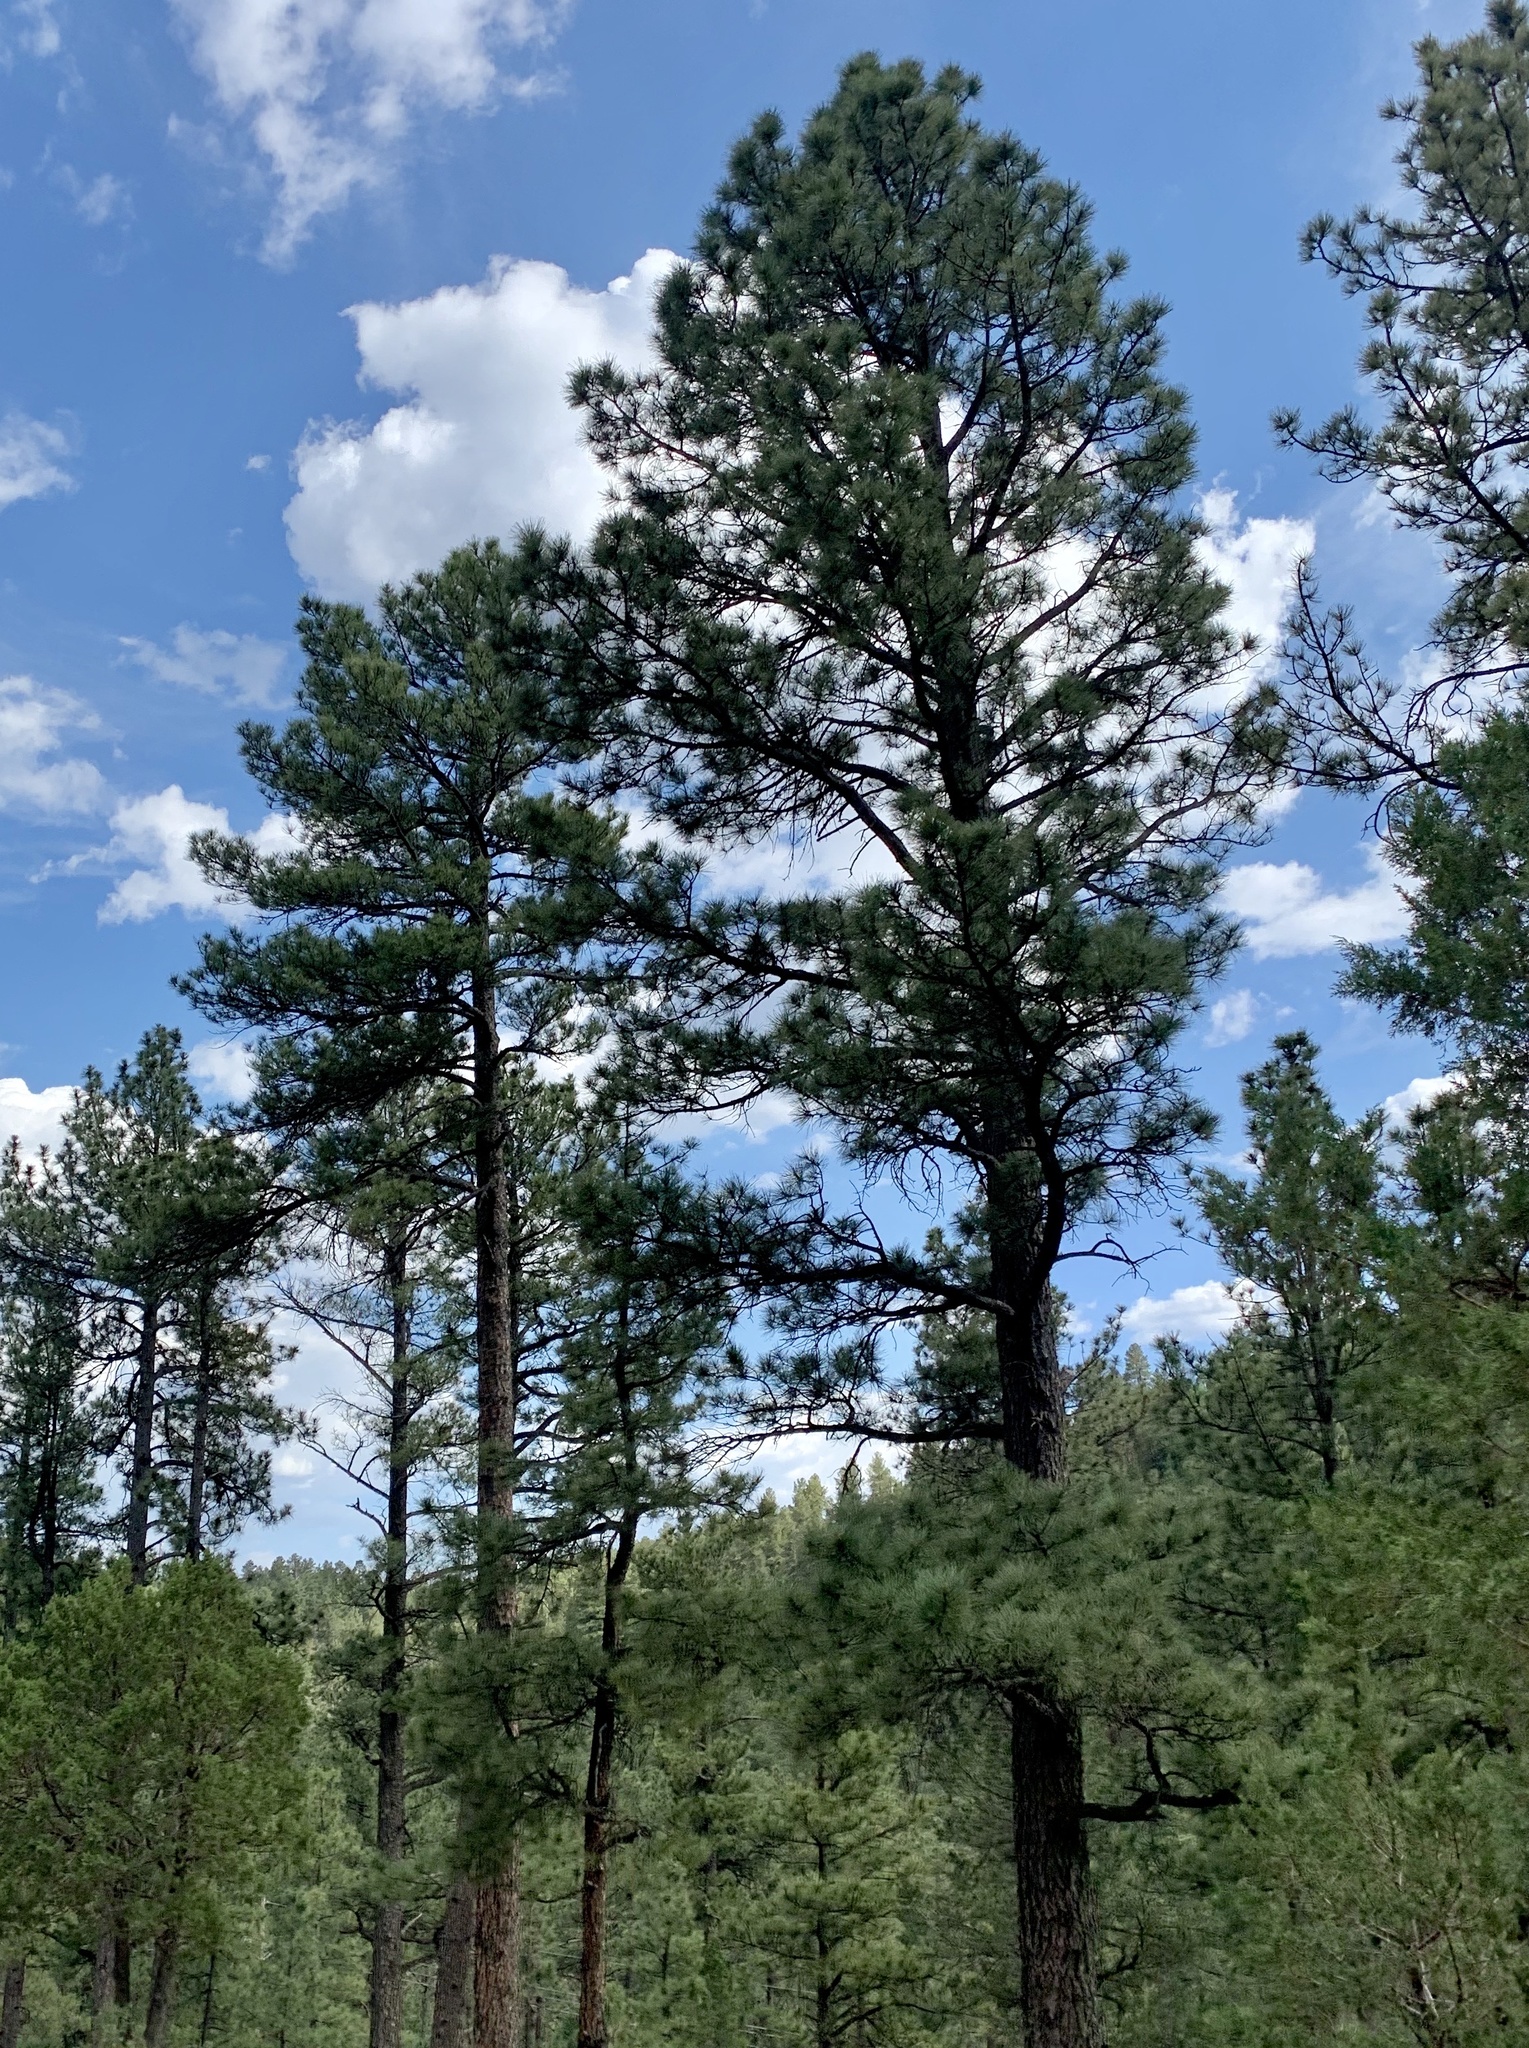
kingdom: Plantae
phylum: Tracheophyta
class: Pinopsida
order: Pinales
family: Pinaceae
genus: Pinus
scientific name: Pinus ponderosa
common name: Western yellow-pine
